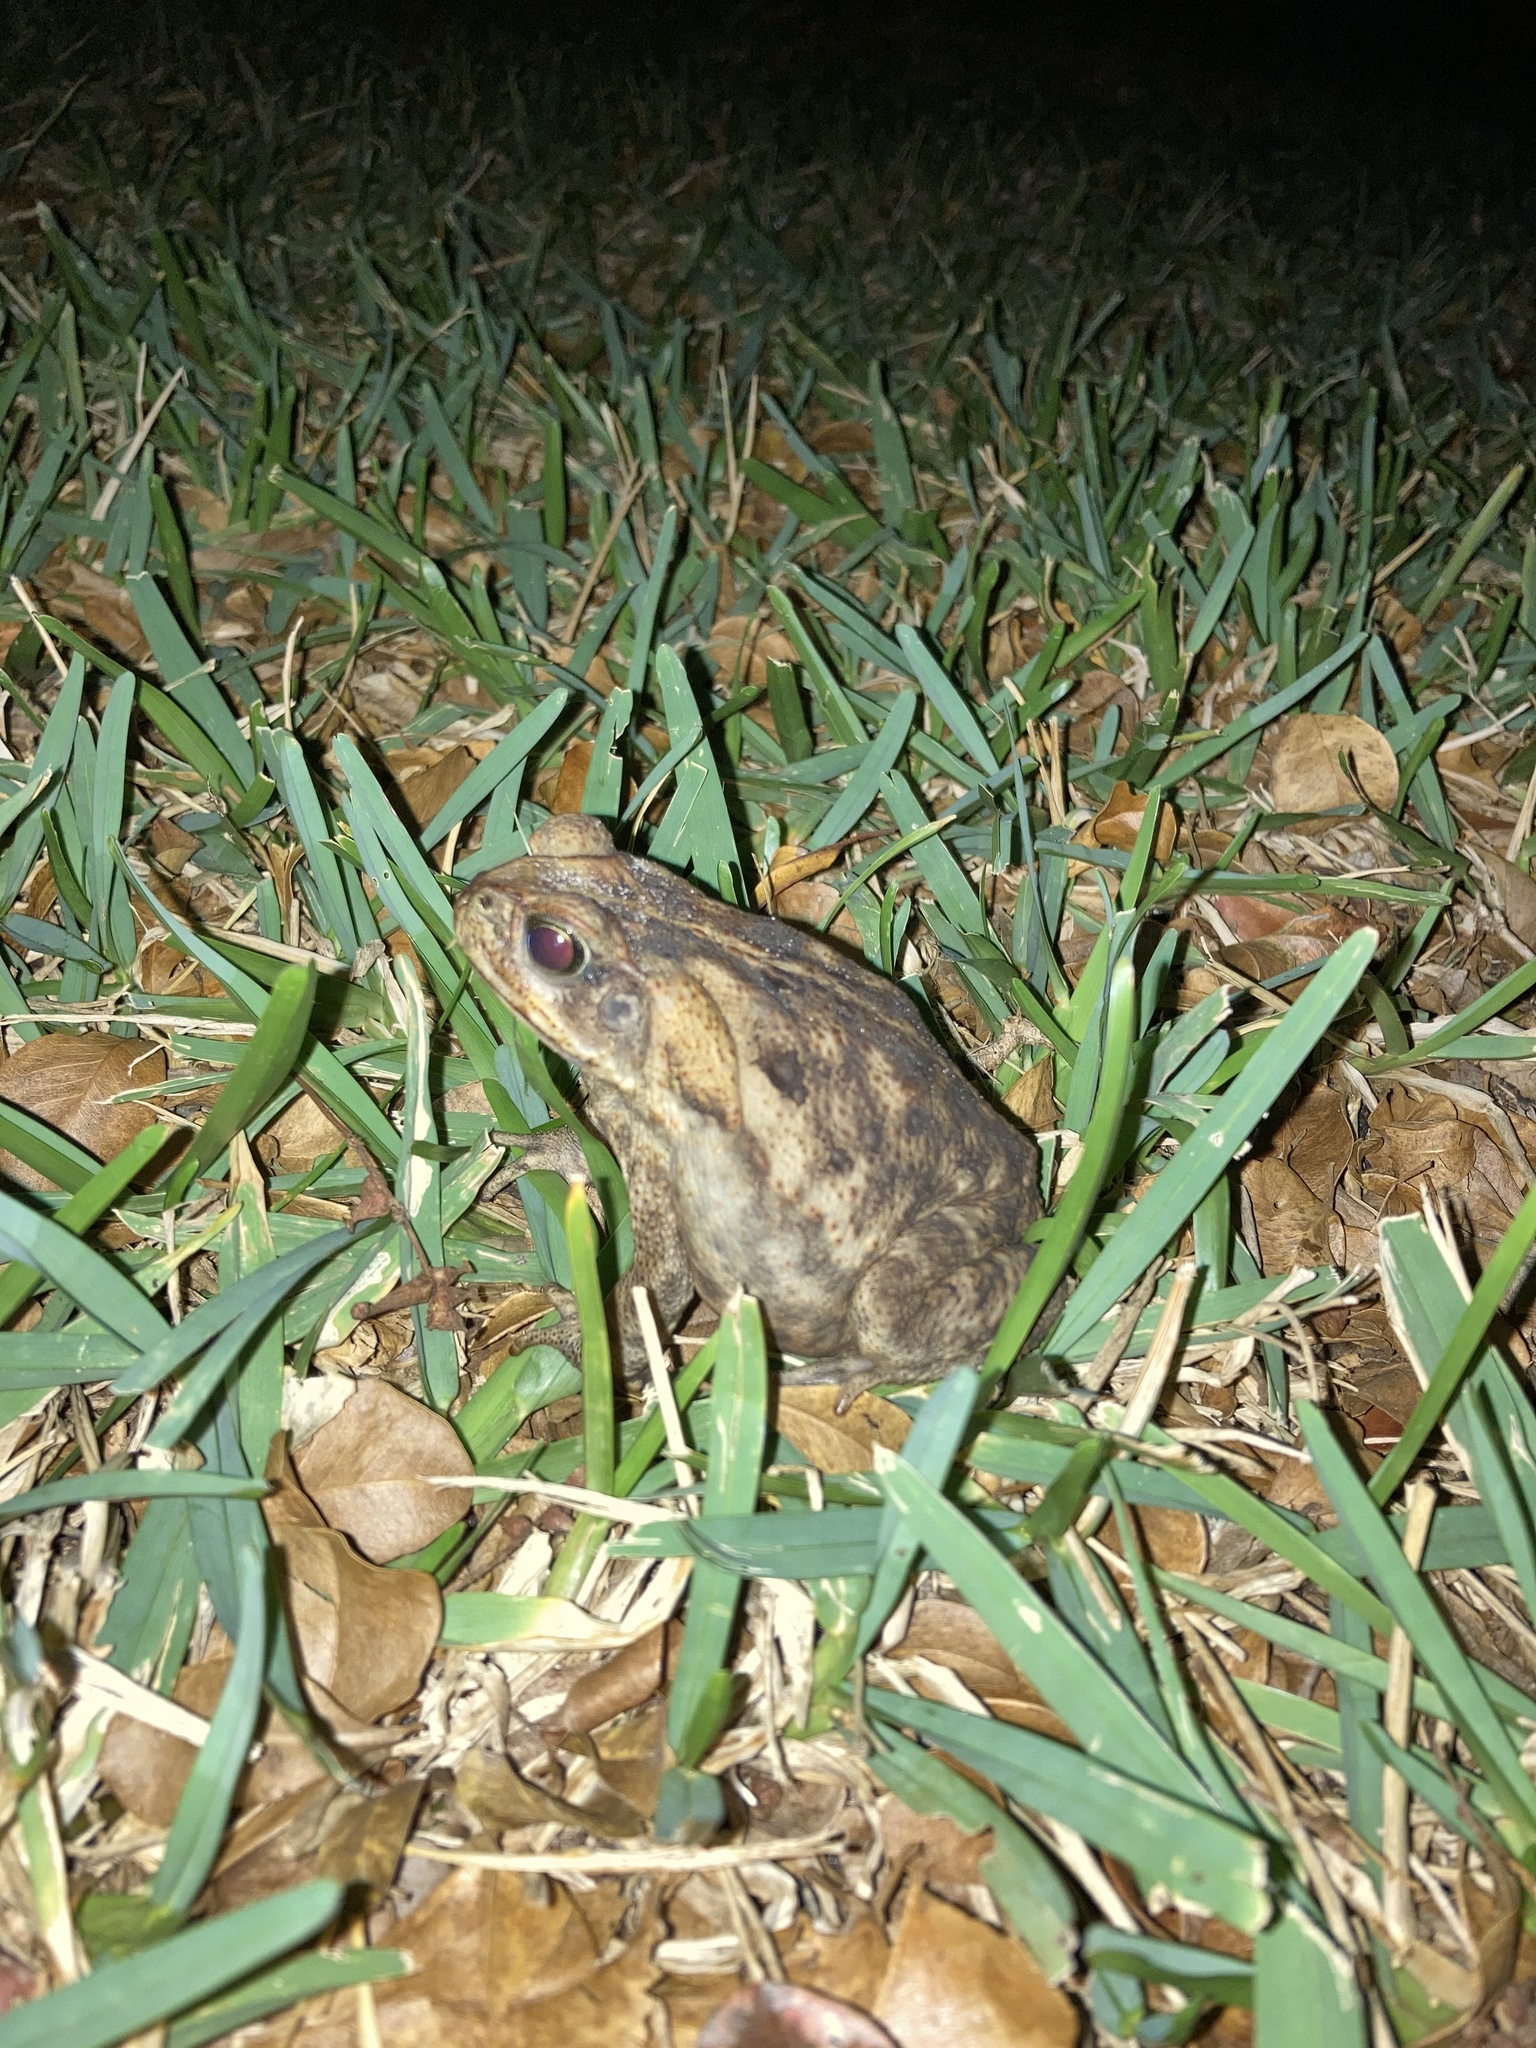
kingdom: Animalia
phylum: Chordata
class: Amphibia
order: Anura
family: Bufonidae
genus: Rhinella
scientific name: Rhinella marina
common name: Cane toad
